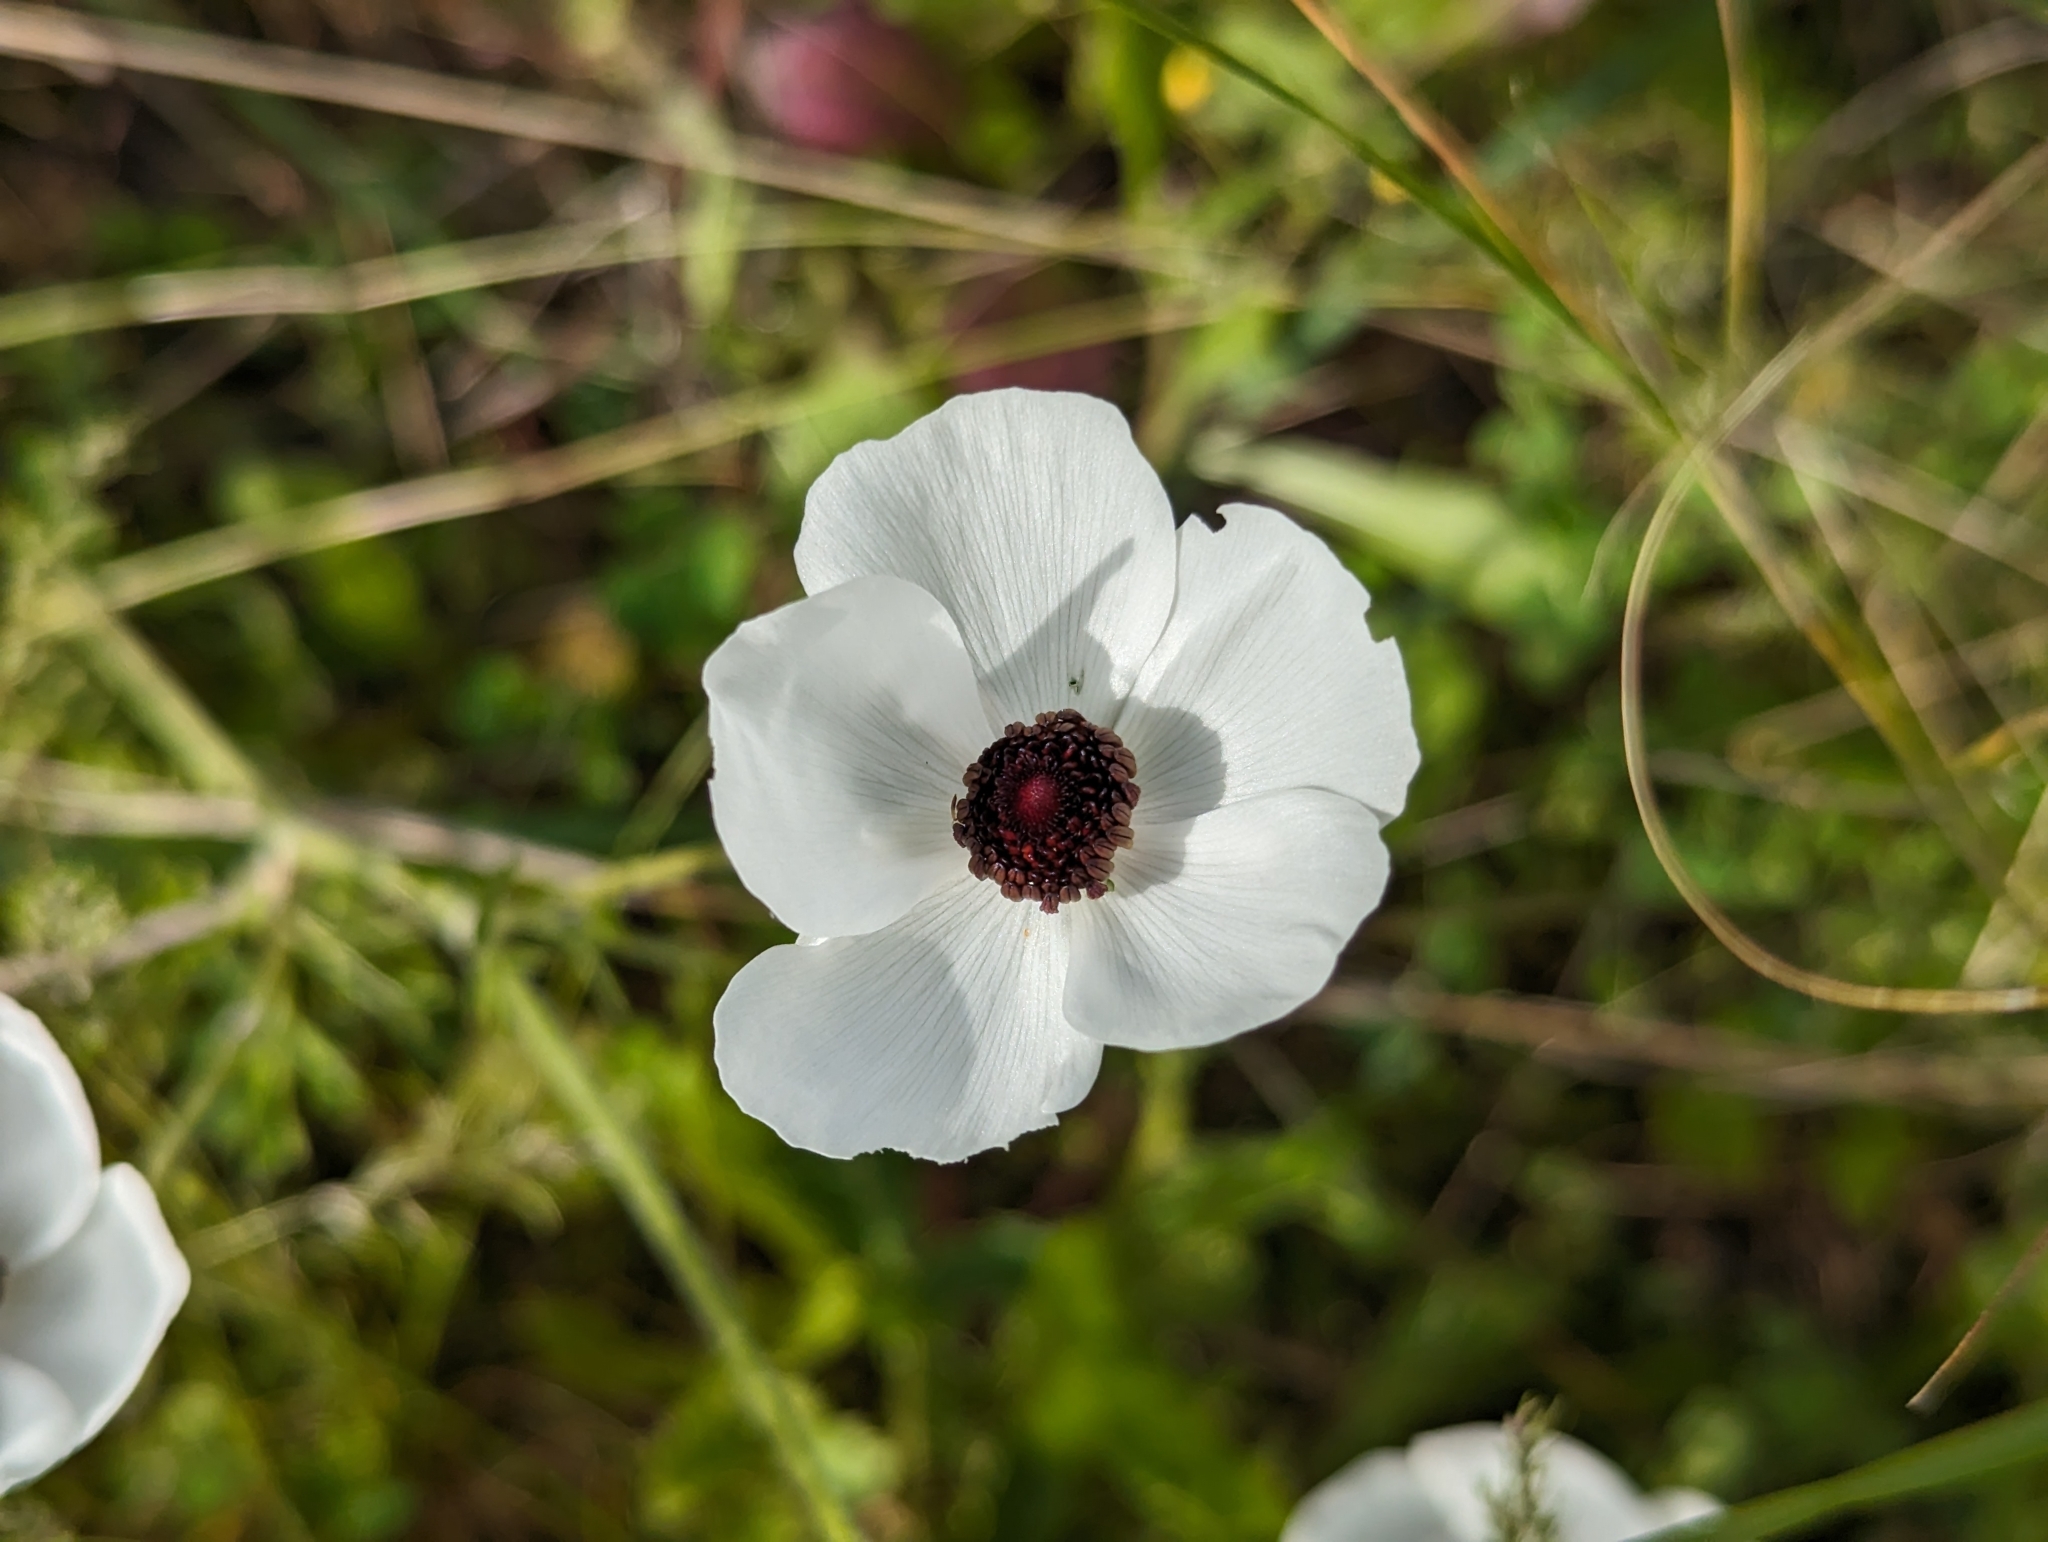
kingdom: Plantae
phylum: Tracheophyta
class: Magnoliopsida
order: Ranunculales
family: Ranunculaceae
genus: Ranunculus
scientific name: Ranunculus asiaticus
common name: Persian buttercup
